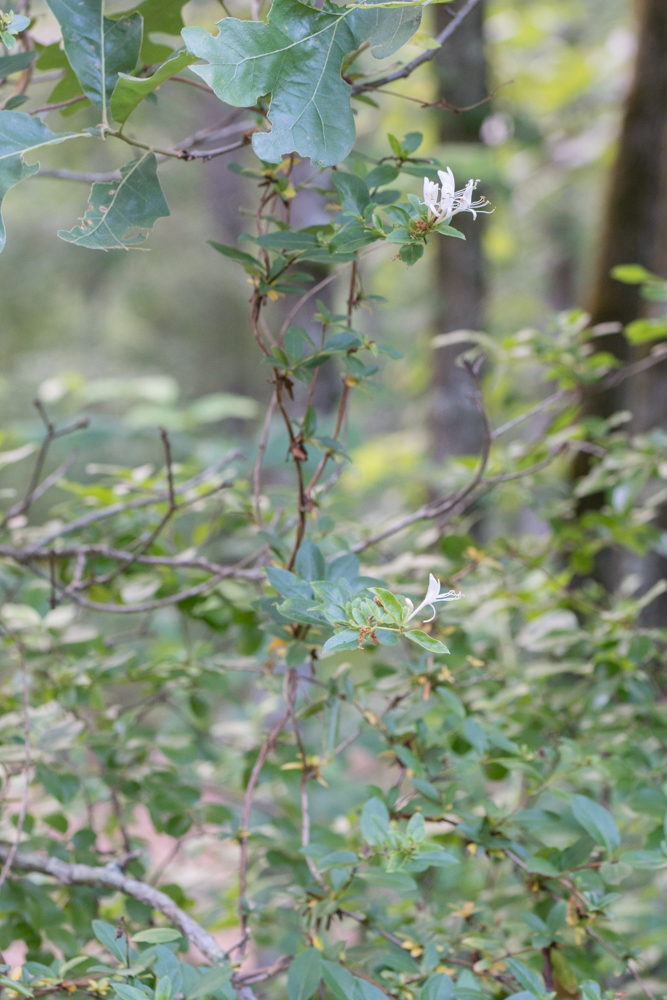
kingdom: Plantae
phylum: Tracheophyta
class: Magnoliopsida
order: Dipsacales
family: Caprifoliaceae
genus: Lonicera
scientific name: Lonicera japonica
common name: Japanese honeysuckle
